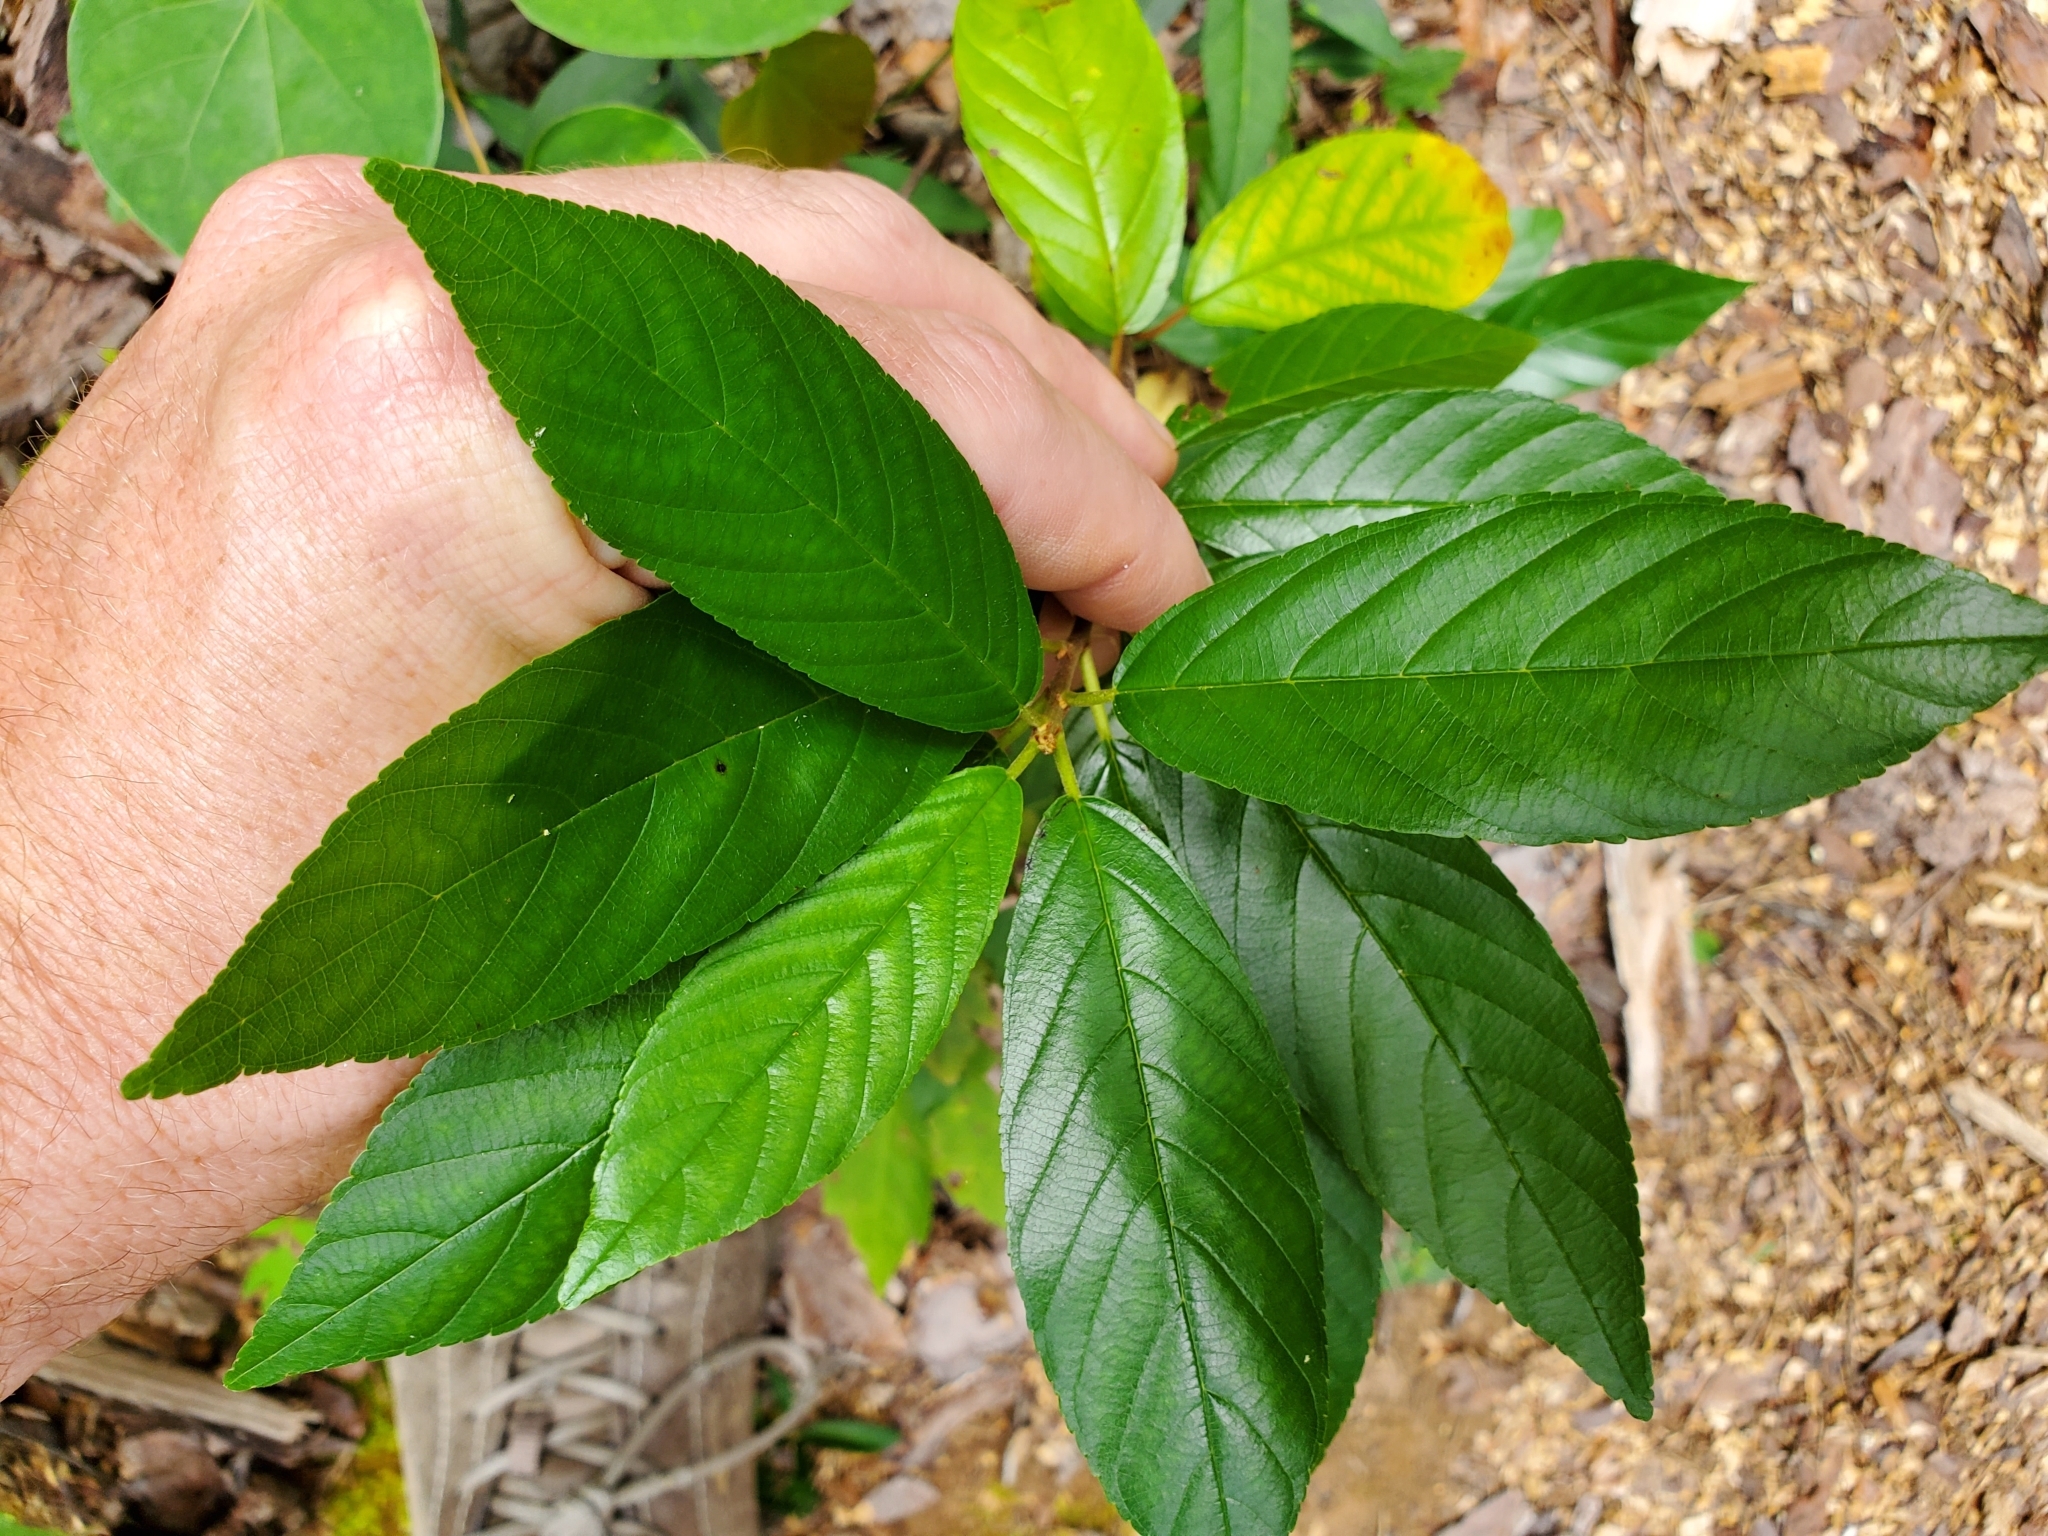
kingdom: Plantae
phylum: Tracheophyta
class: Magnoliopsida
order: Rosales
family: Rhamnaceae
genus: Frangula
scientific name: Frangula caroliniana
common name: Carolina buckthorn
